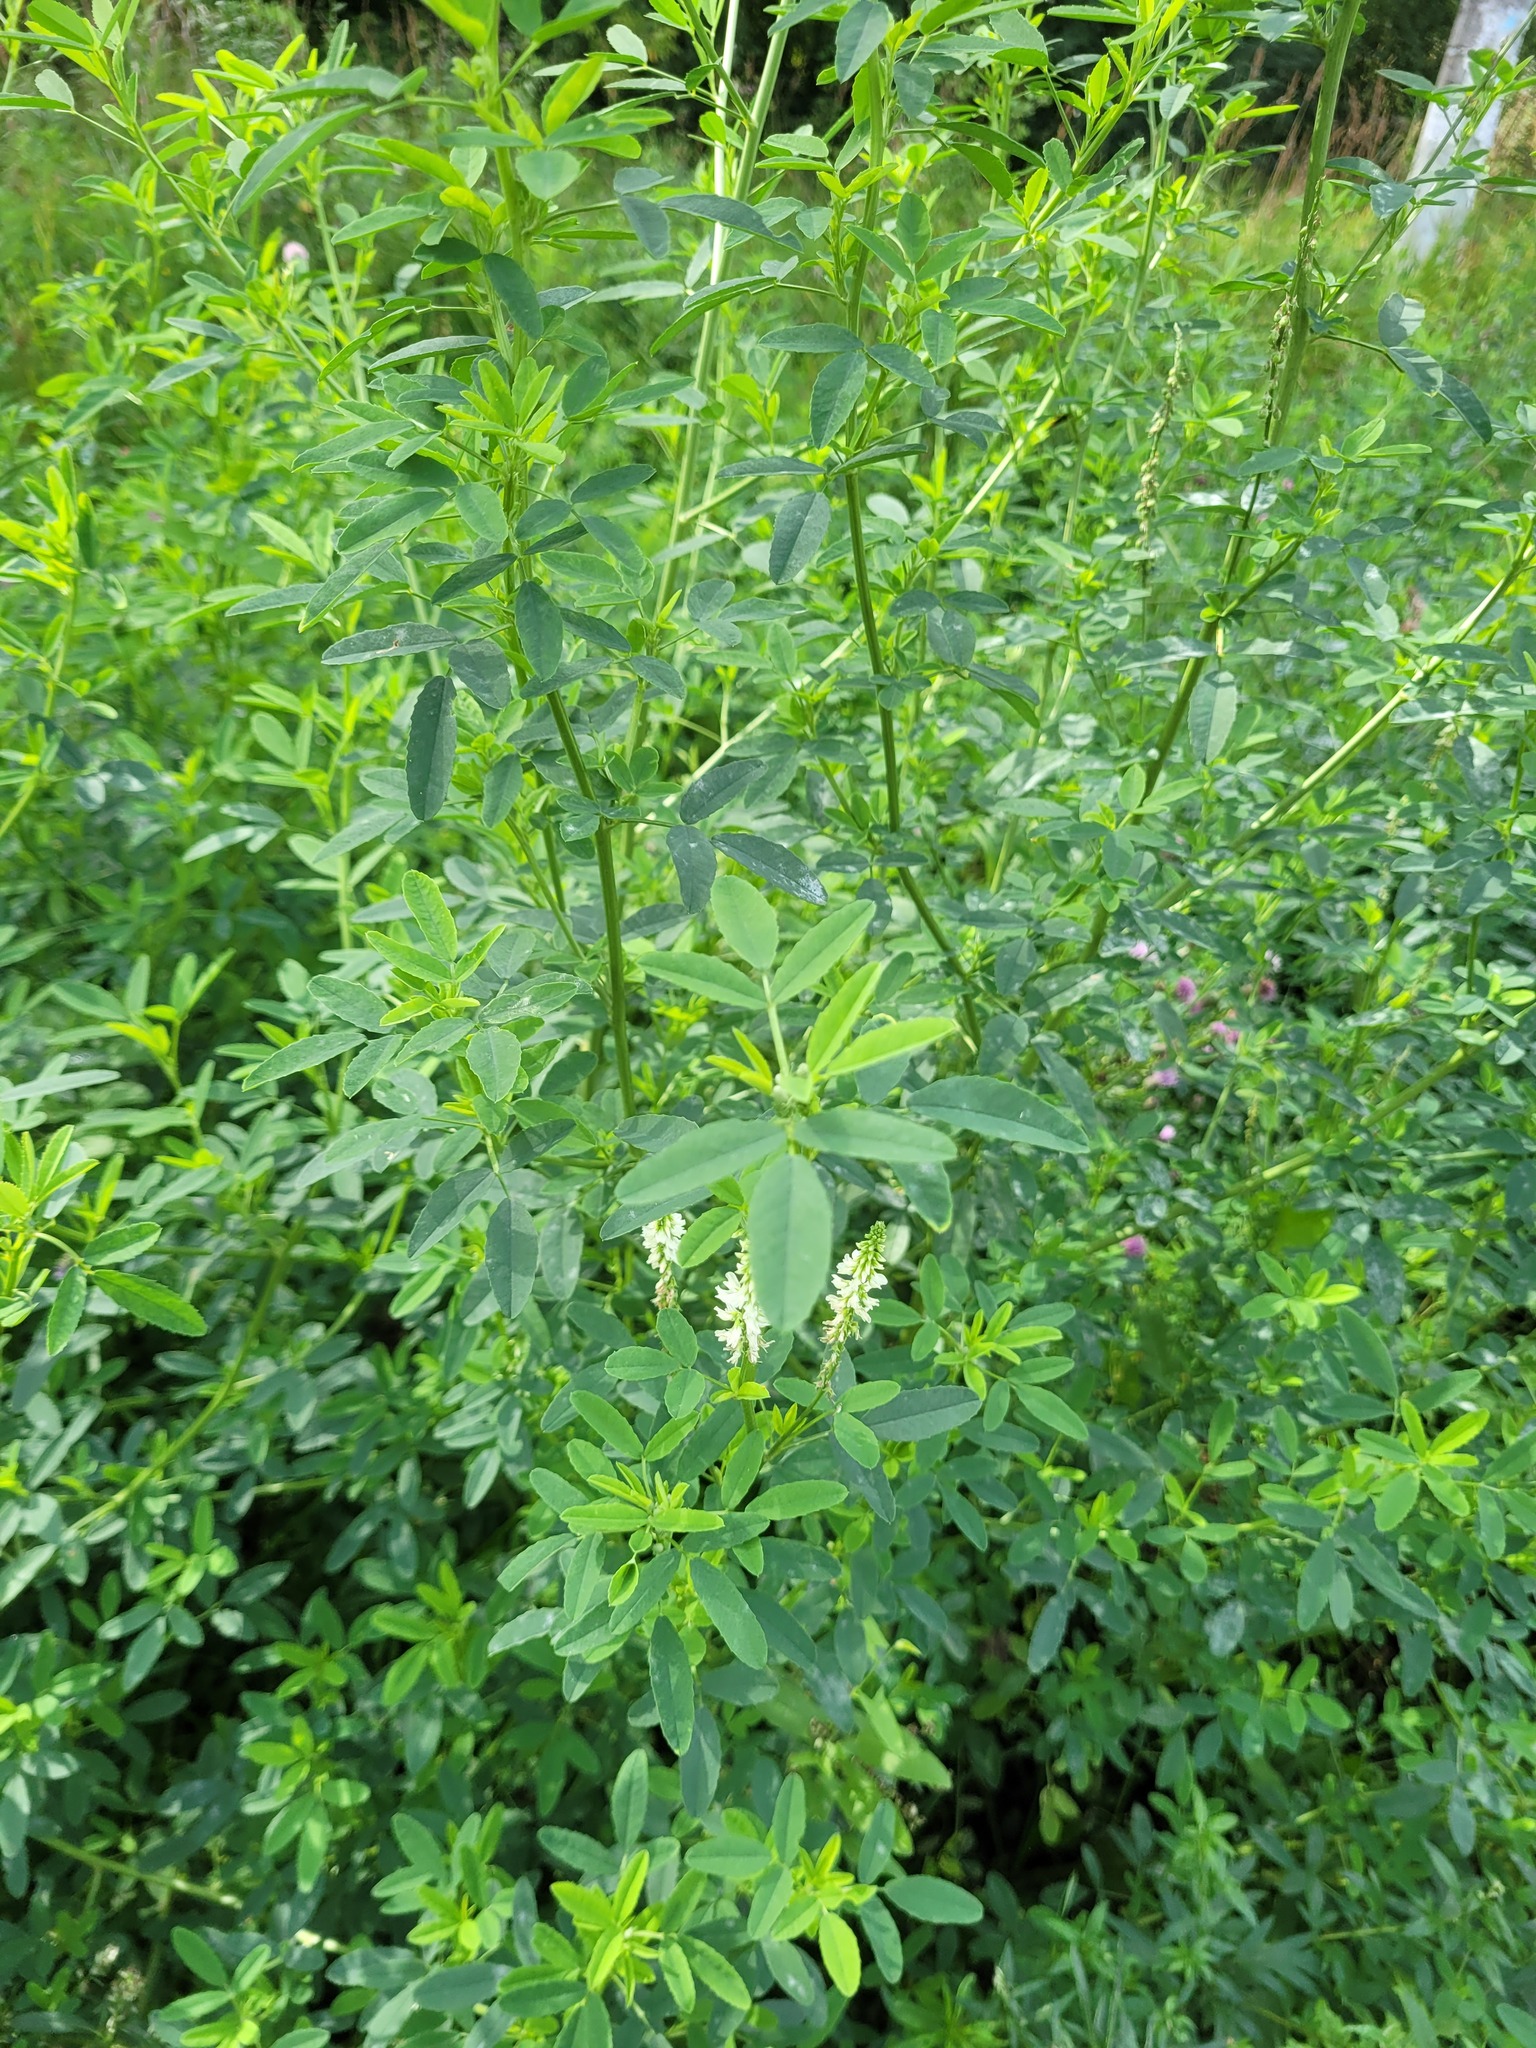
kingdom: Plantae
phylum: Tracheophyta
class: Magnoliopsida
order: Fabales
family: Fabaceae
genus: Melilotus
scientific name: Melilotus albus
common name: White melilot
